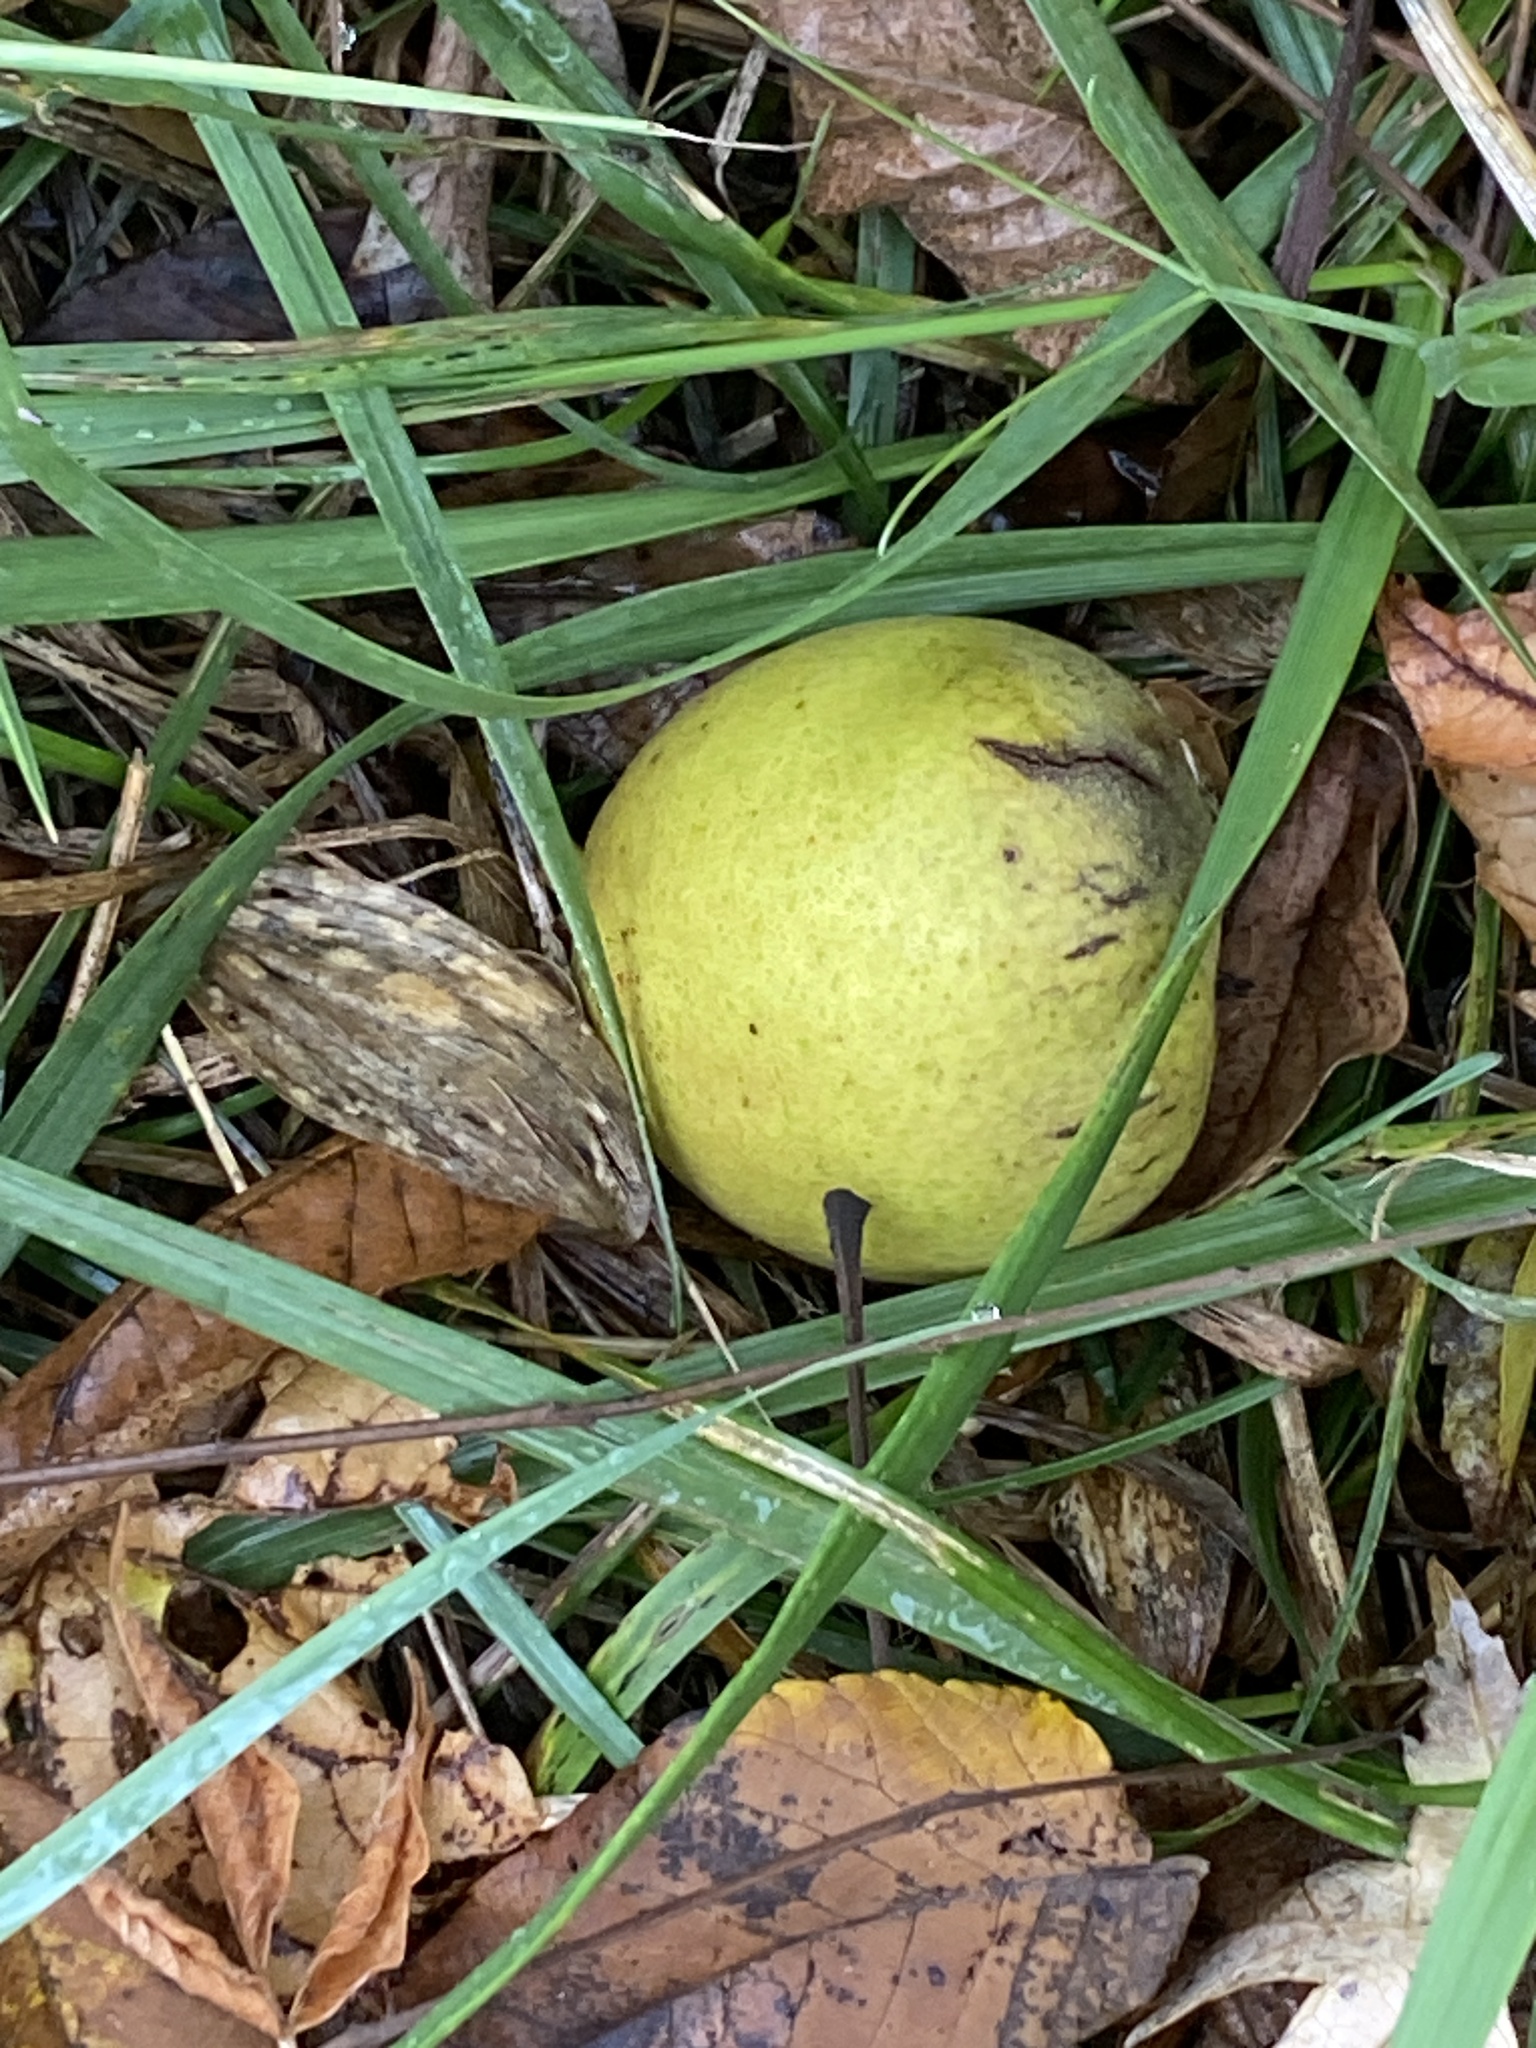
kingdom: Plantae
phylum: Tracheophyta
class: Magnoliopsida
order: Fagales
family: Juglandaceae
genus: Juglans
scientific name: Juglans nigra
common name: Black walnut
